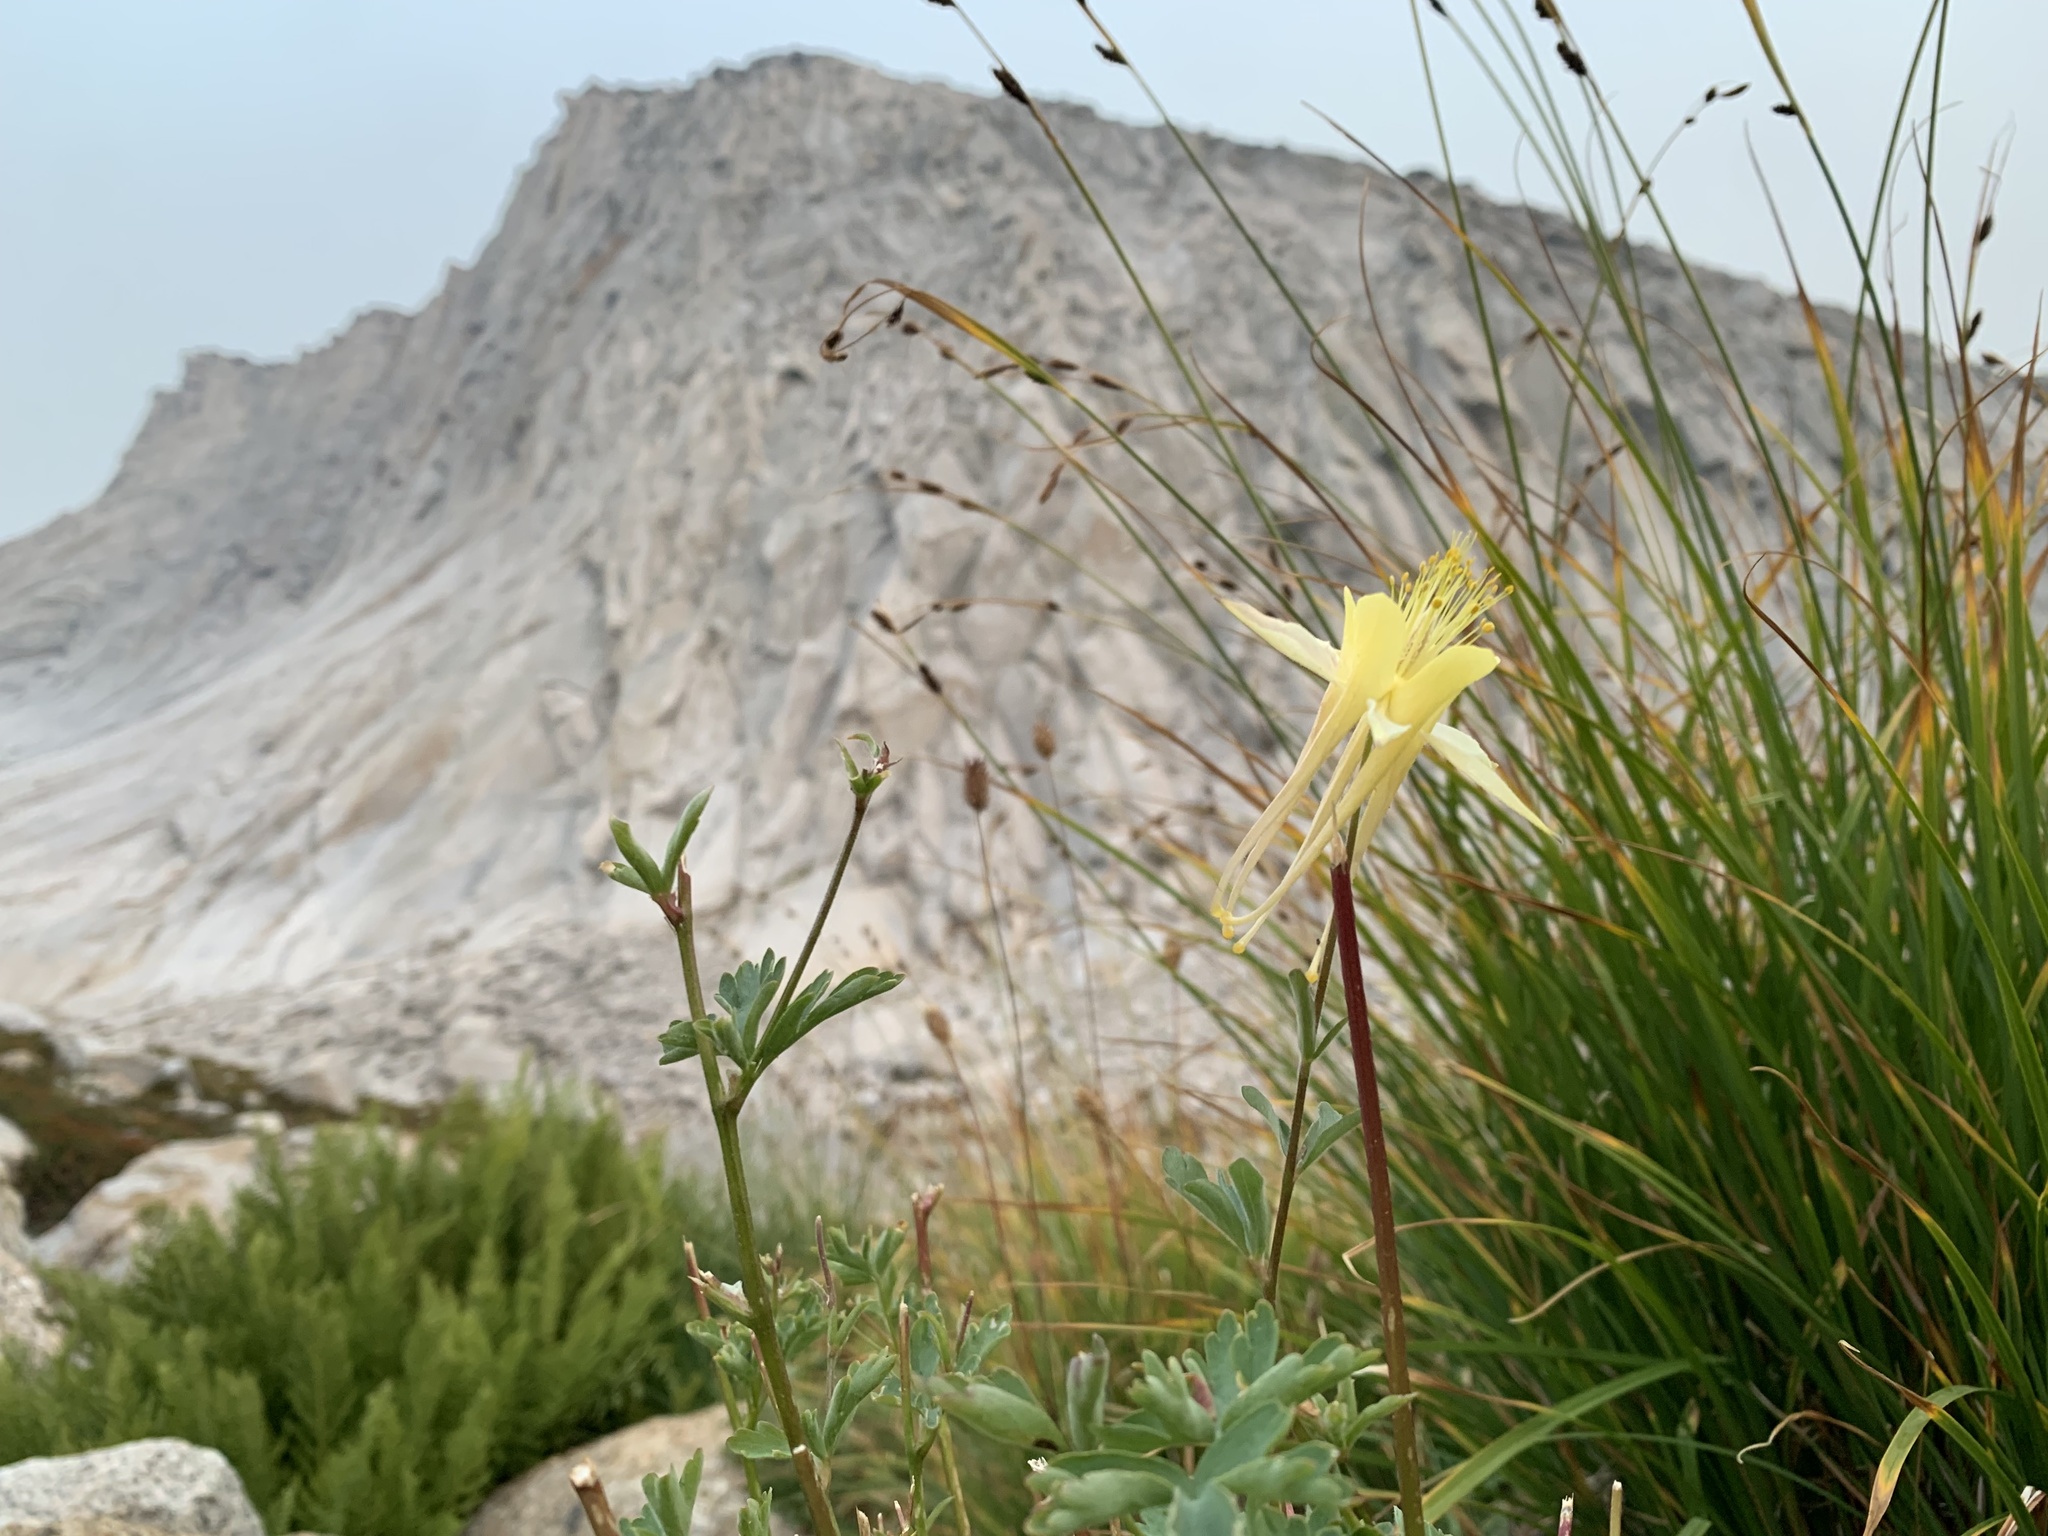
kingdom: Plantae
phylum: Tracheophyta
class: Magnoliopsida
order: Ranunculales
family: Ranunculaceae
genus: Aquilegia
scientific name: Aquilegia pubescens
